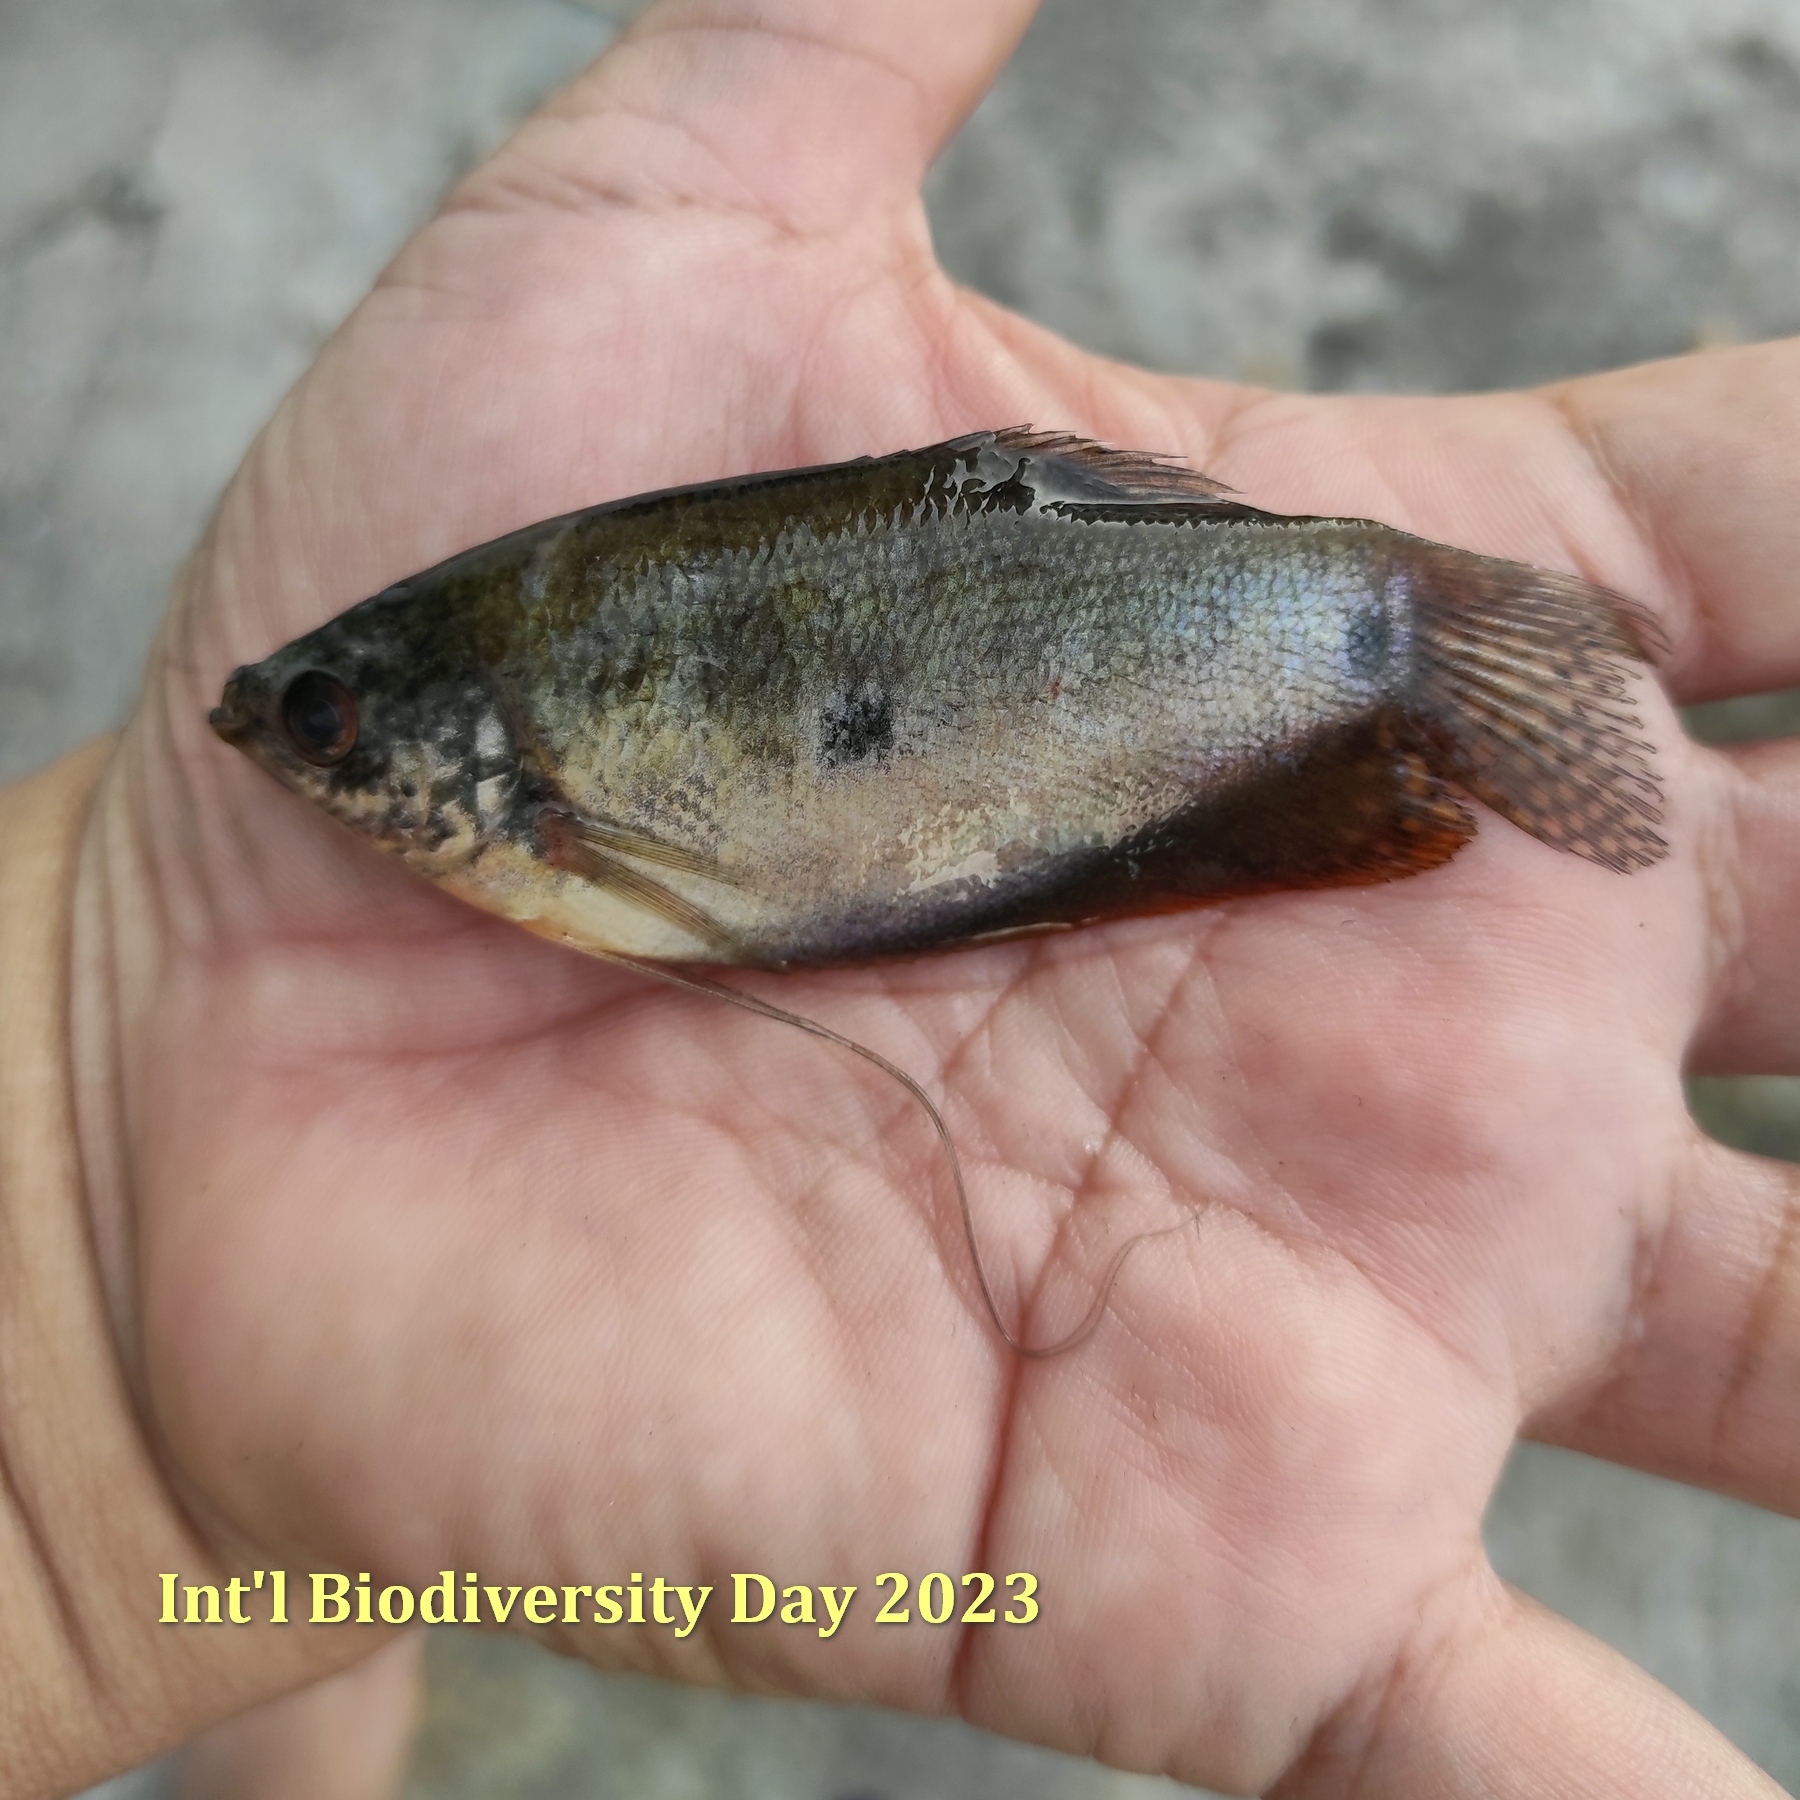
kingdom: Animalia
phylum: Chordata
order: Perciformes
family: Osphronemidae
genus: Trichopodus
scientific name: Trichopodus trichopterus
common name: Blue gourami
